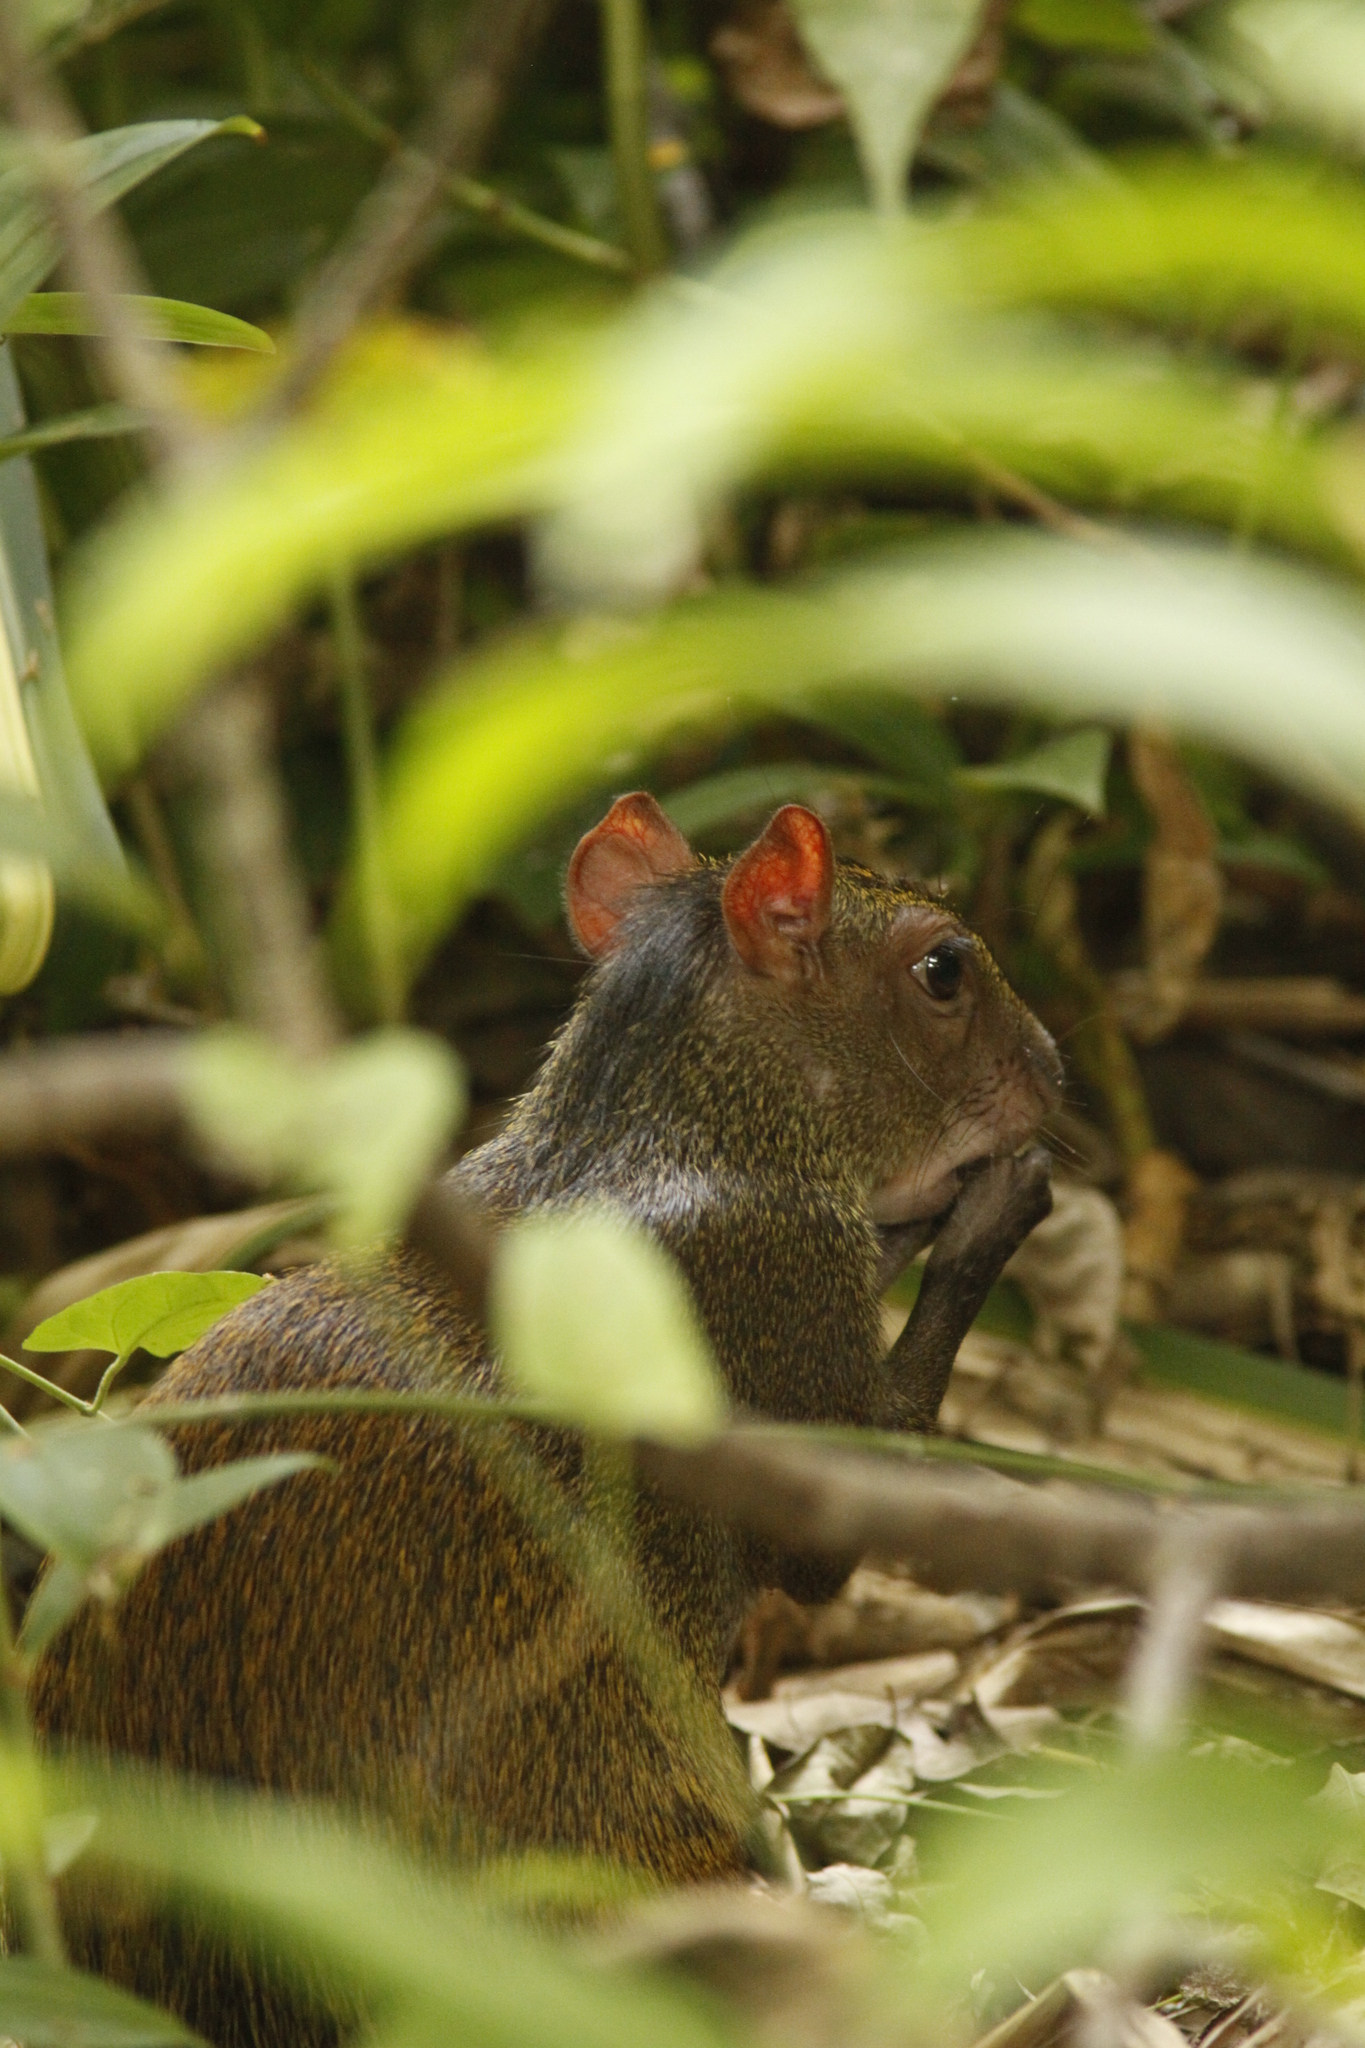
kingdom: Animalia
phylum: Chordata
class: Mammalia
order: Rodentia
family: Dasyproctidae
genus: Dasyprocta
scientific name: Dasyprocta punctata
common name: Central american agouti
